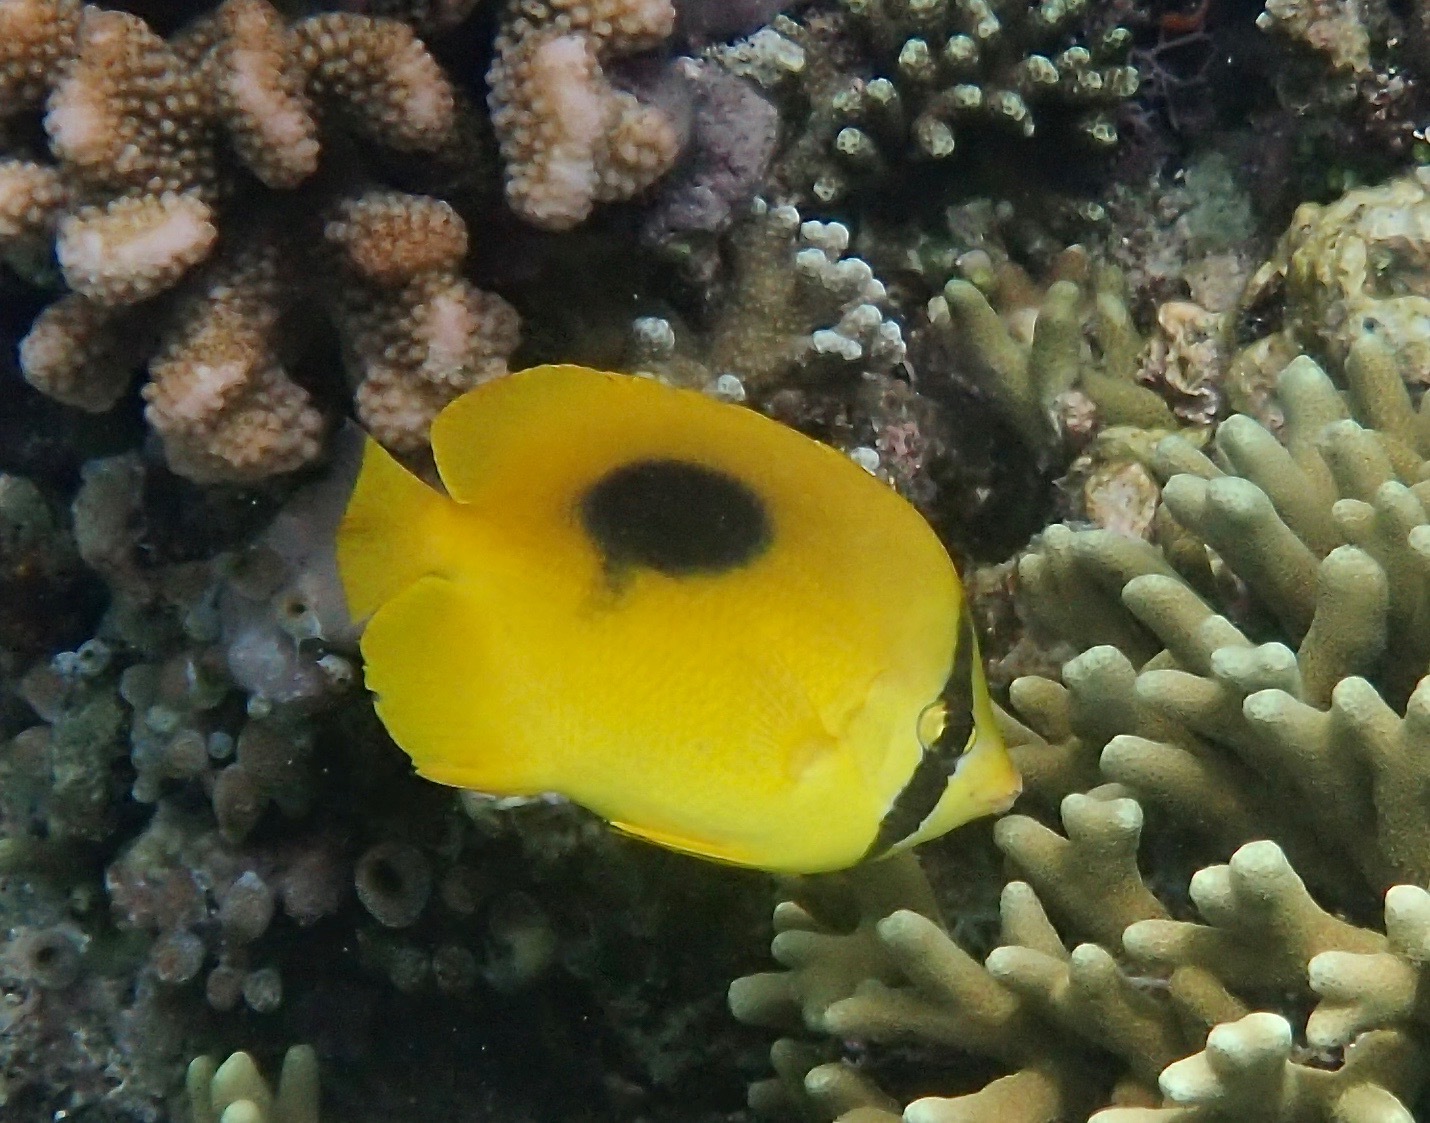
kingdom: Animalia
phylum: Chordata
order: Perciformes
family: Chaetodontidae
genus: Chaetodon
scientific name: Chaetodon speculum
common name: Mirror butterflyfish
